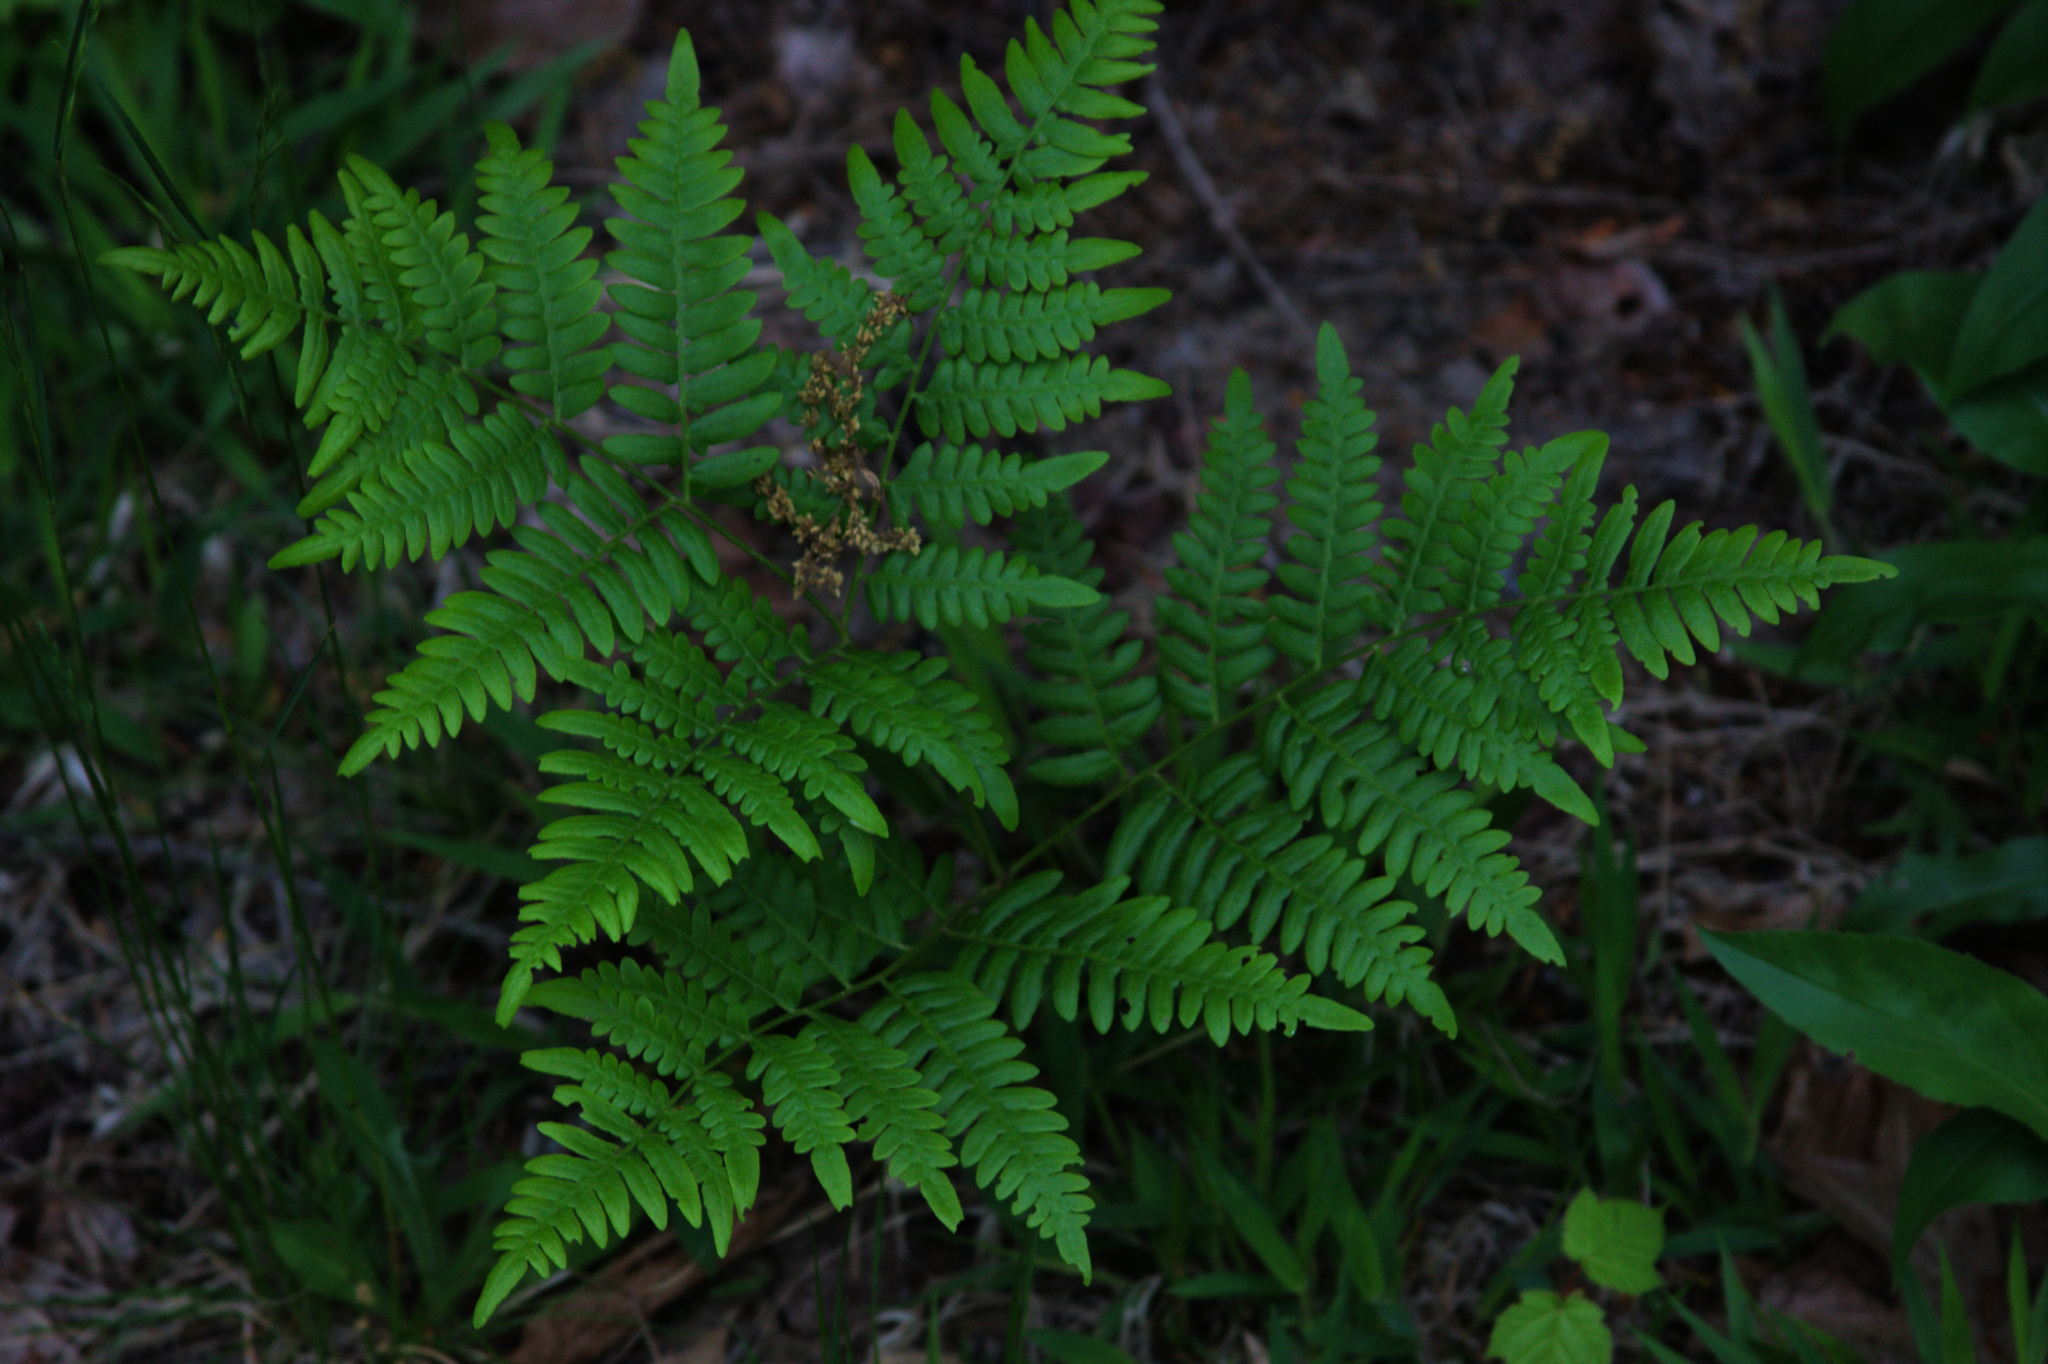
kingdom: Plantae
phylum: Tracheophyta
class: Polypodiopsida
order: Polypodiales
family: Dennstaedtiaceae
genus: Pteridium
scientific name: Pteridium aquilinum
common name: Bracken
